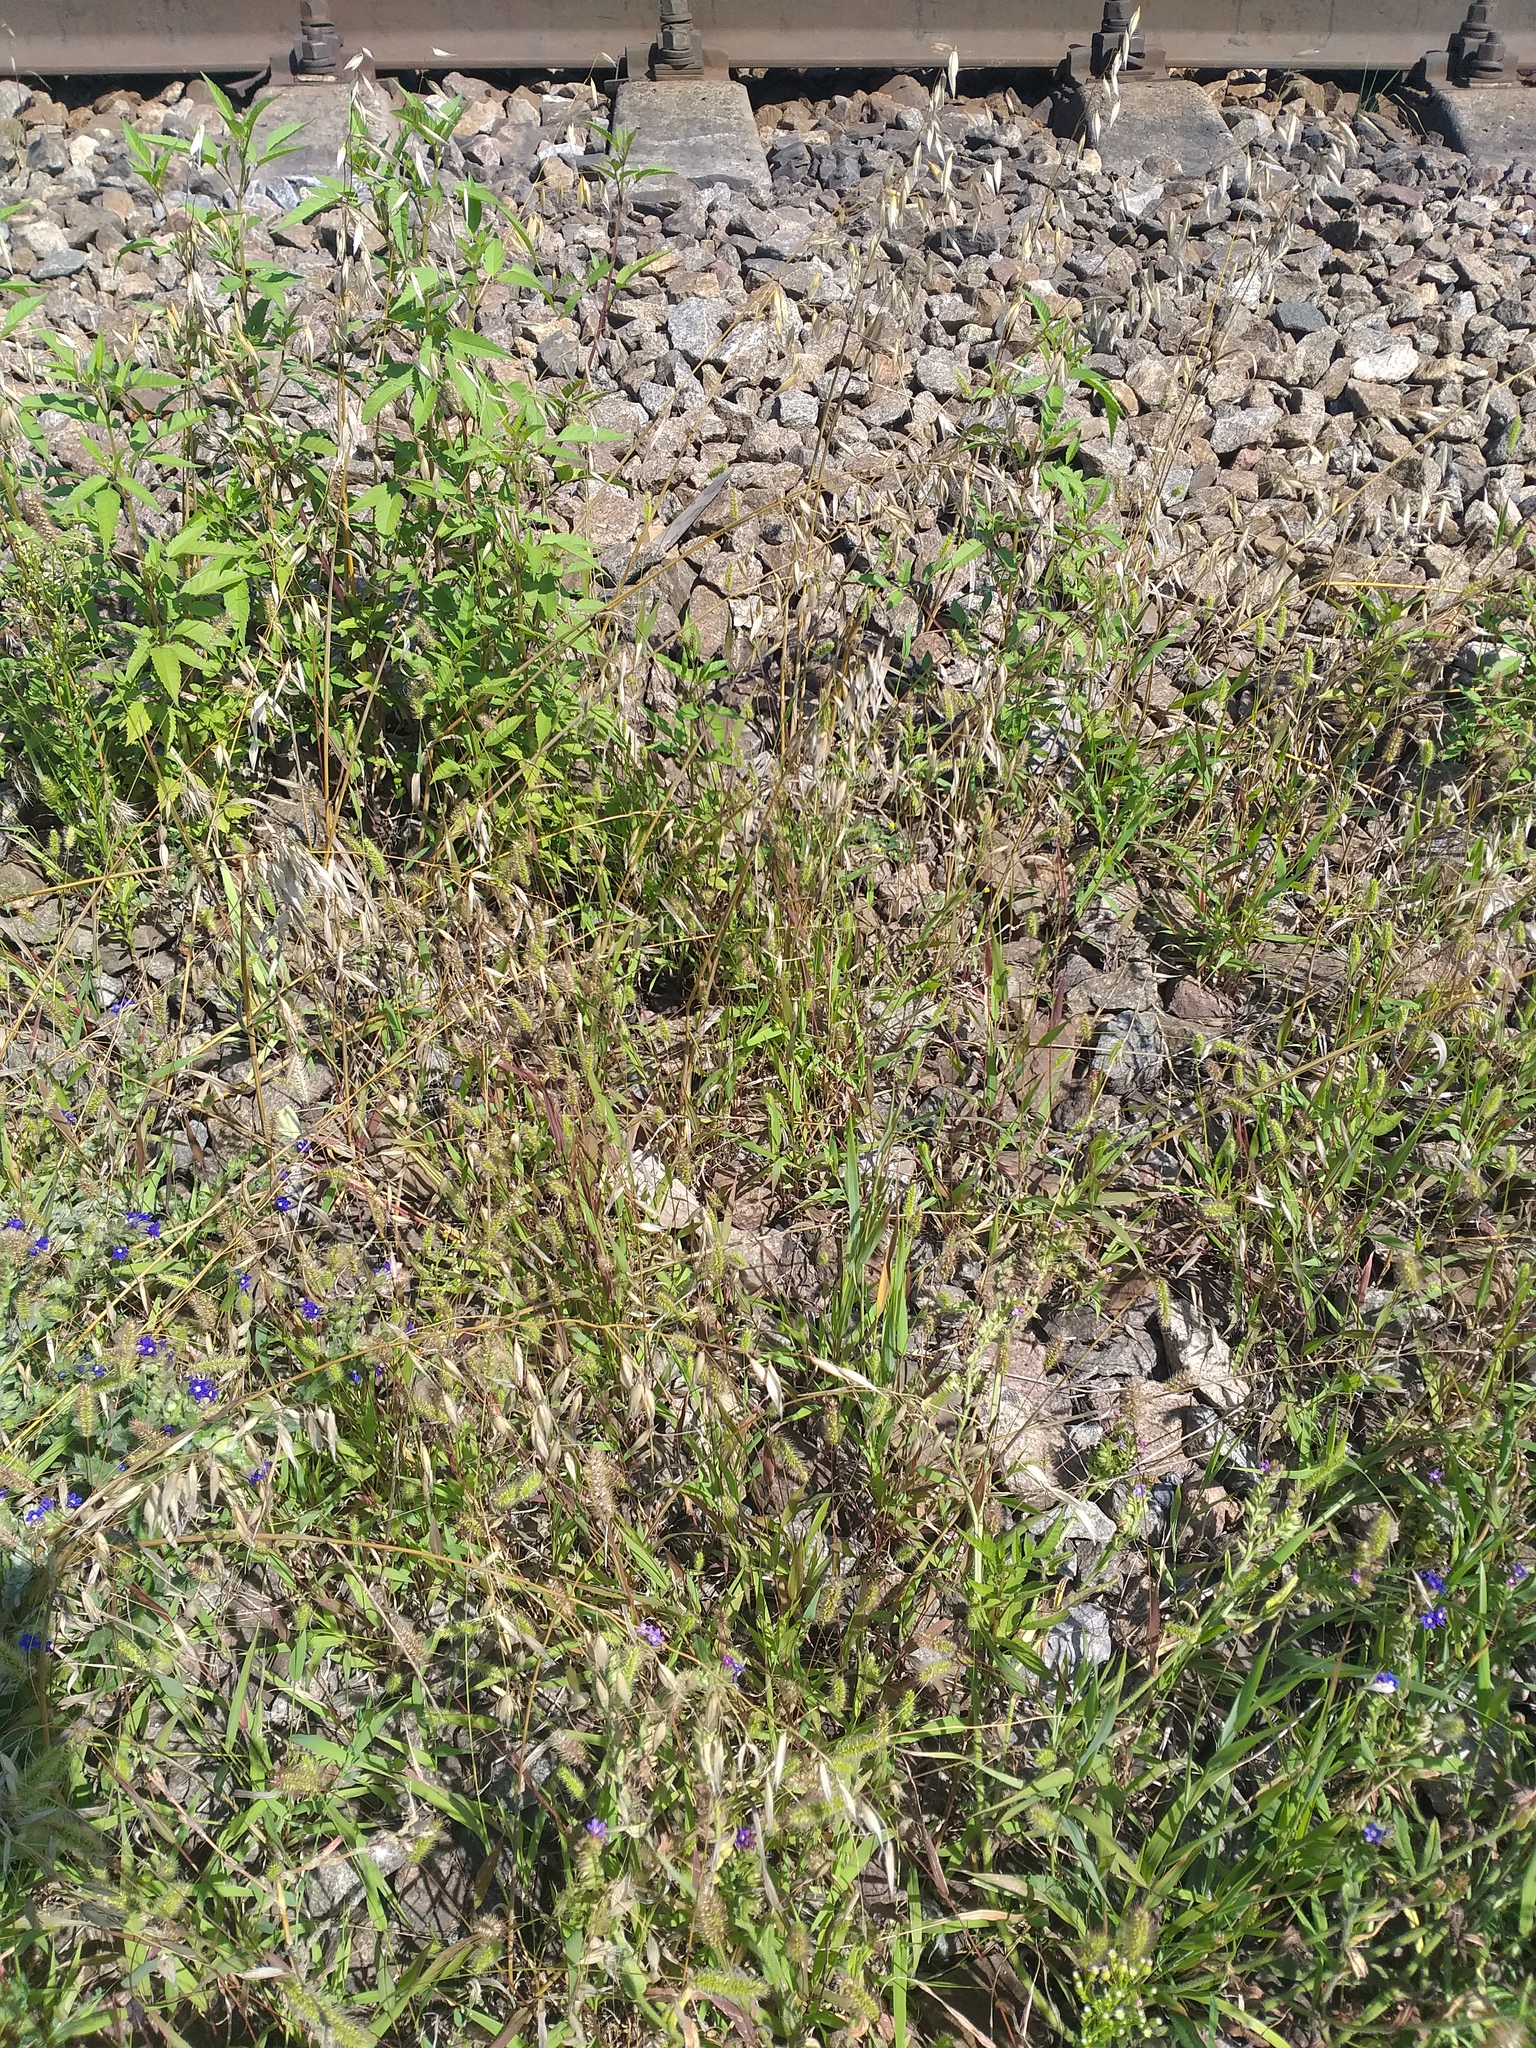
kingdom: Plantae
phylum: Tracheophyta
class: Liliopsida
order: Poales
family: Poaceae
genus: Setaria
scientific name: Setaria viridis
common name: Green bristlegrass
